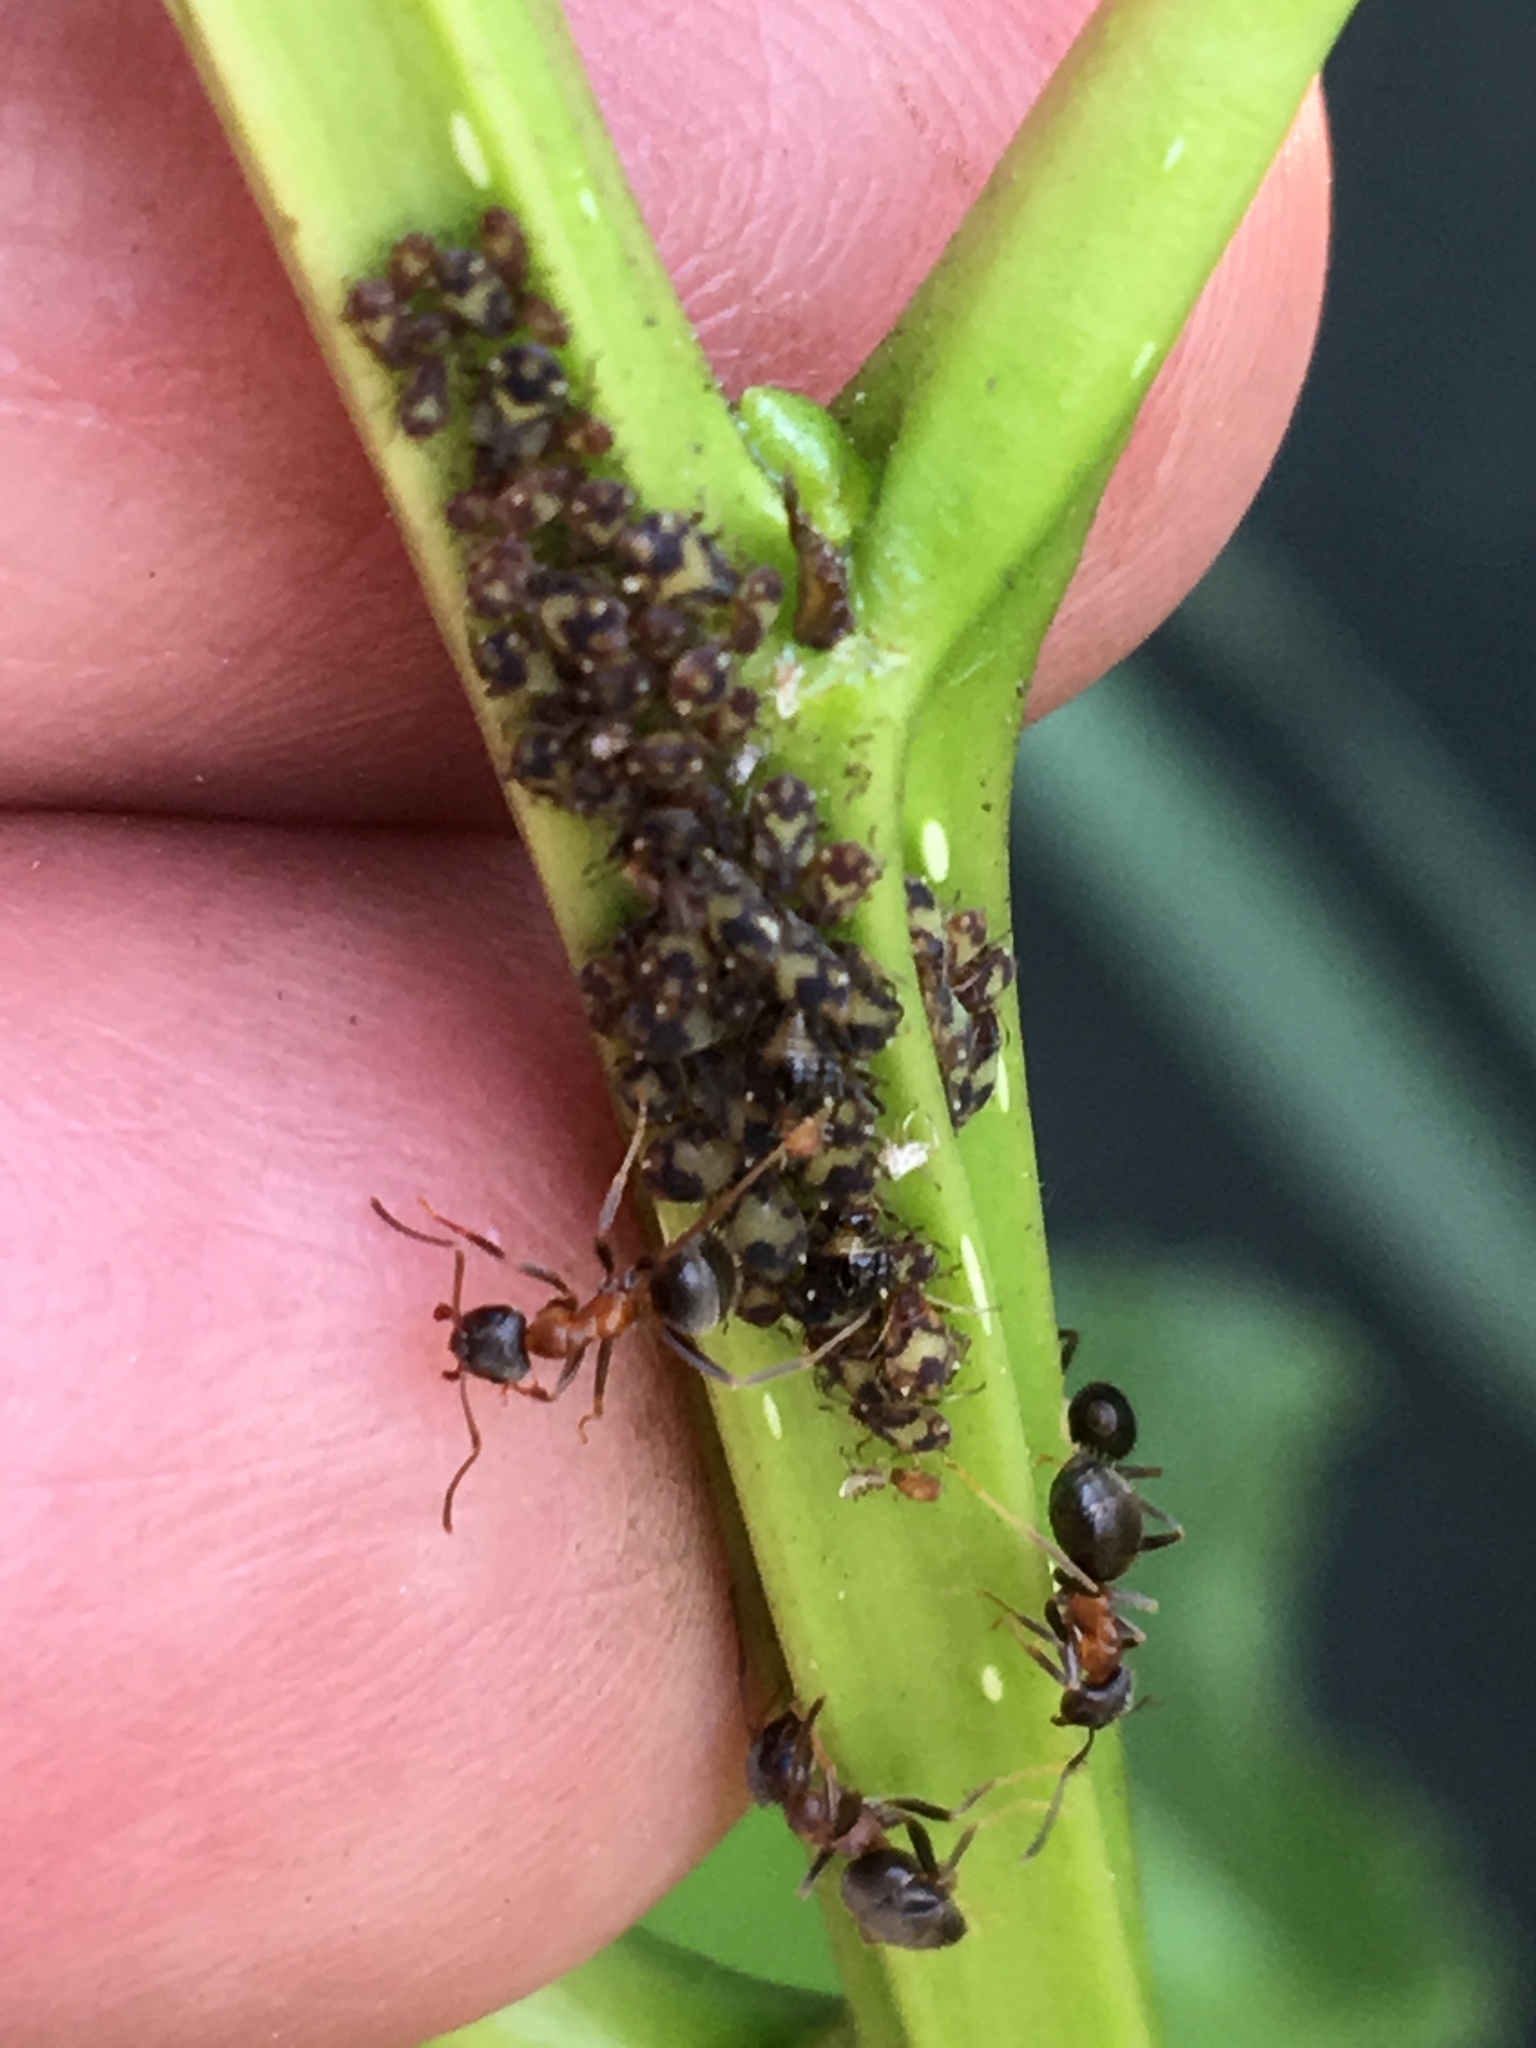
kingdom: Animalia
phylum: Arthropoda
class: Insecta
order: Hymenoptera
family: Formicidae
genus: Lasius
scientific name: Lasius emarginatus
